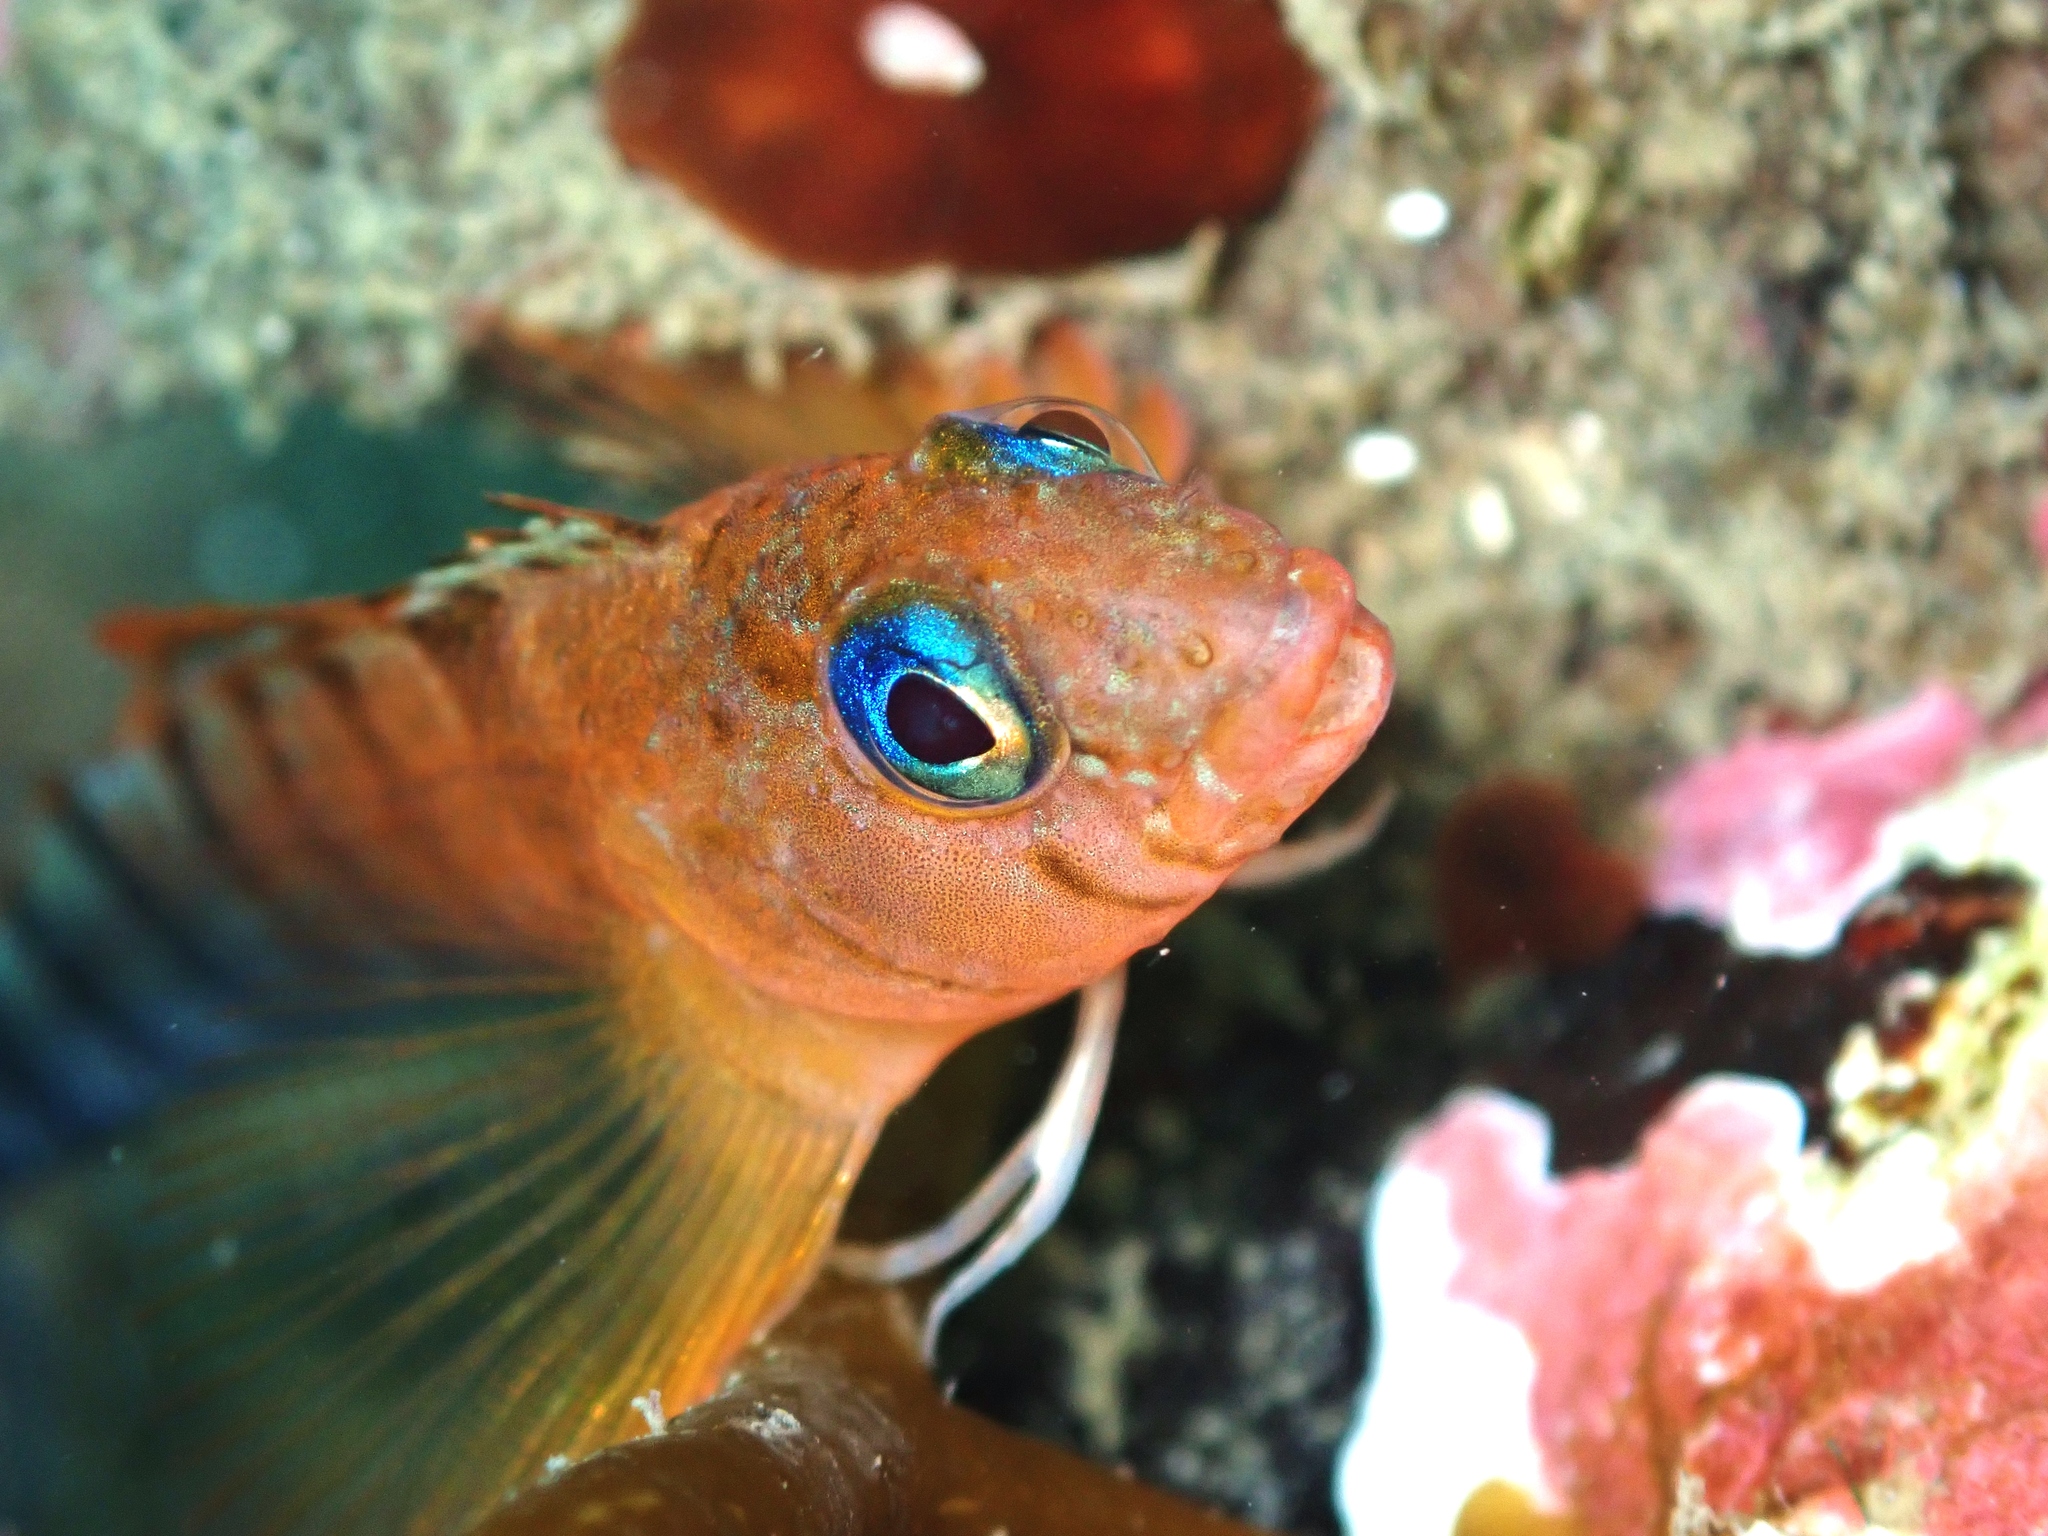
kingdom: Animalia
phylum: Chordata
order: Perciformes
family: Tripterygiidae
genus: Notoclinops
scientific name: Notoclinops segmentatus
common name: Blue-eyed triplefin
